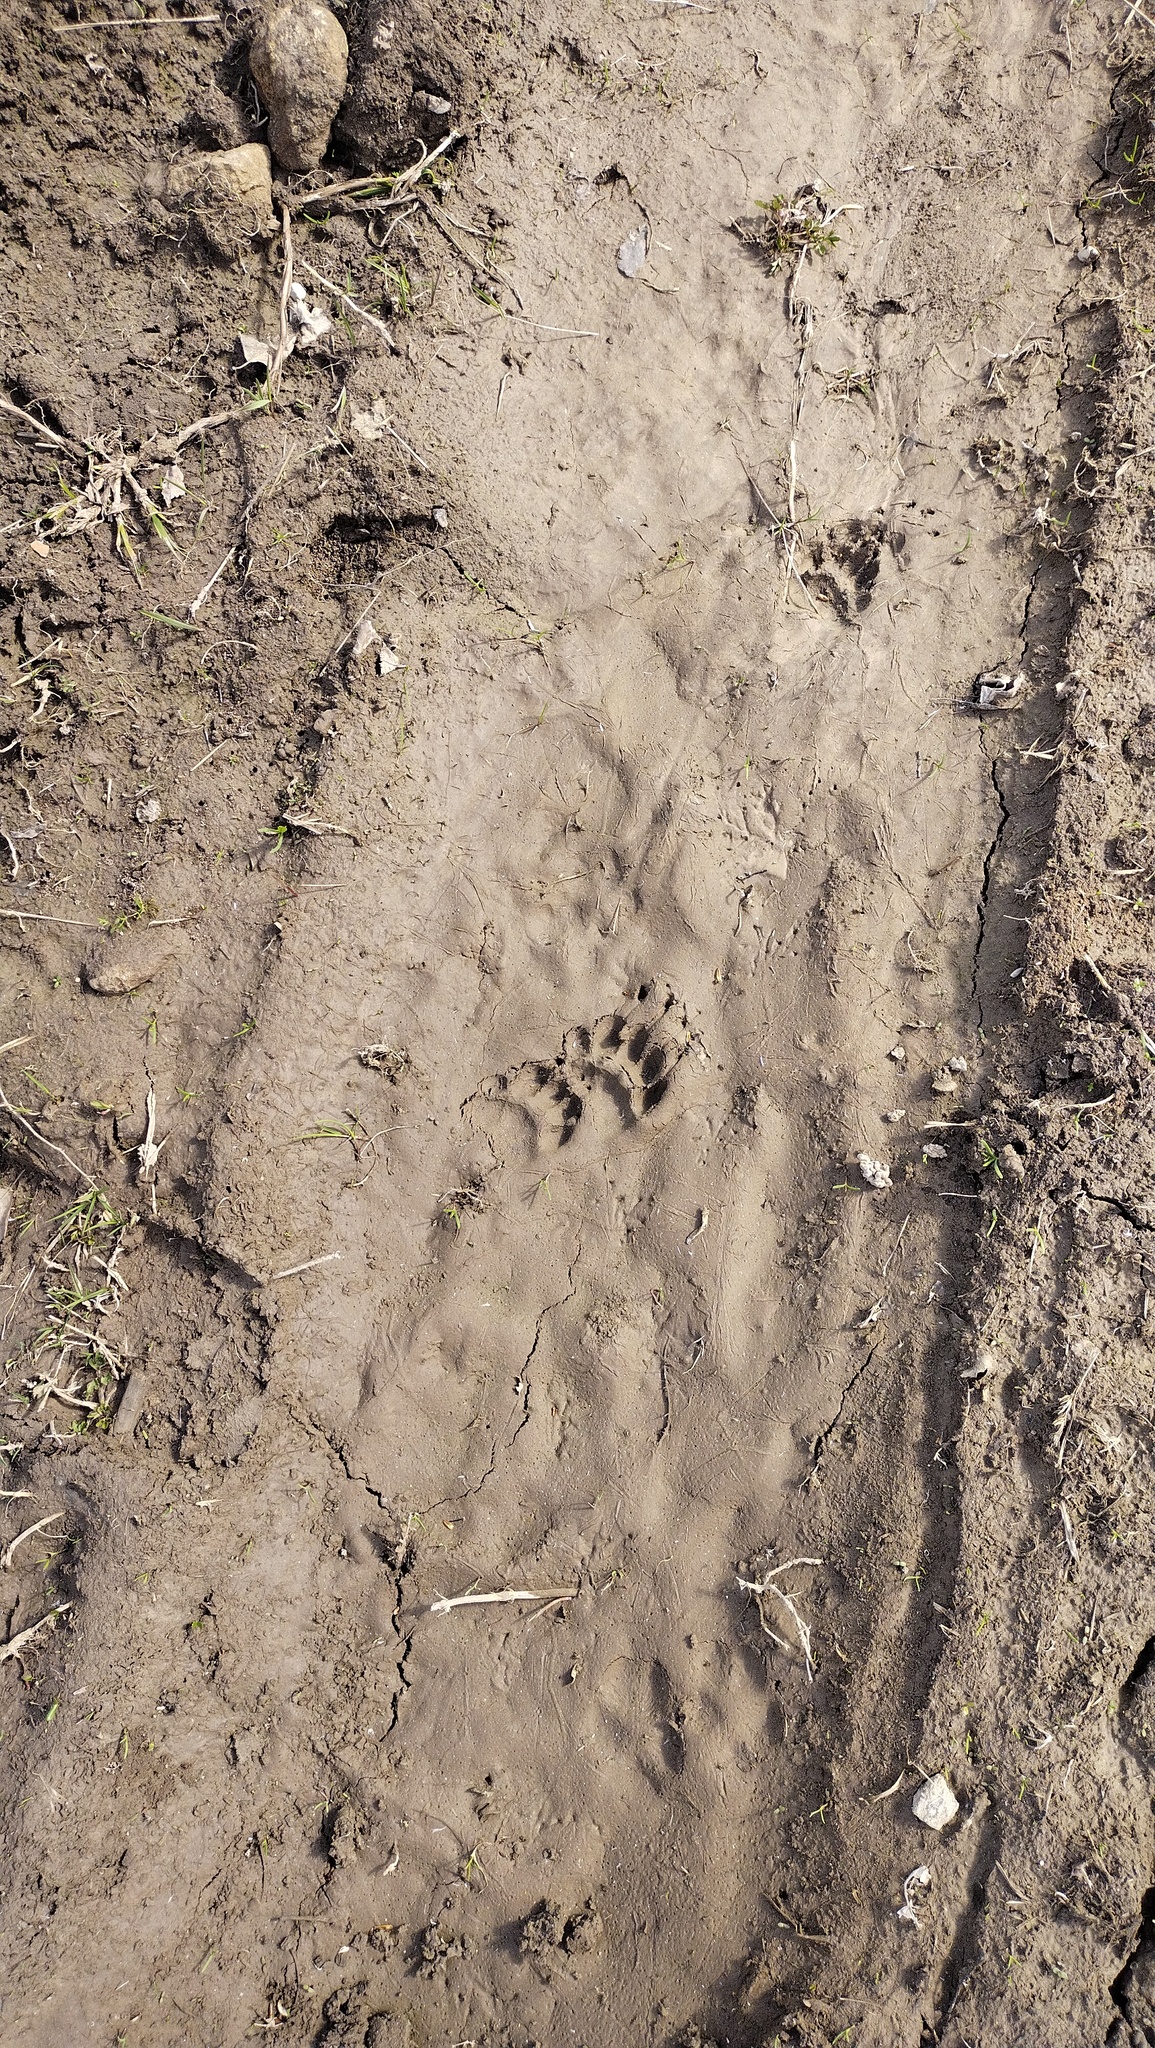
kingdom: Animalia
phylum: Chordata
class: Mammalia
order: Carnivora
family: Mustelidae
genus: Meles
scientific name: Meles meles
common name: Eurasian badger
